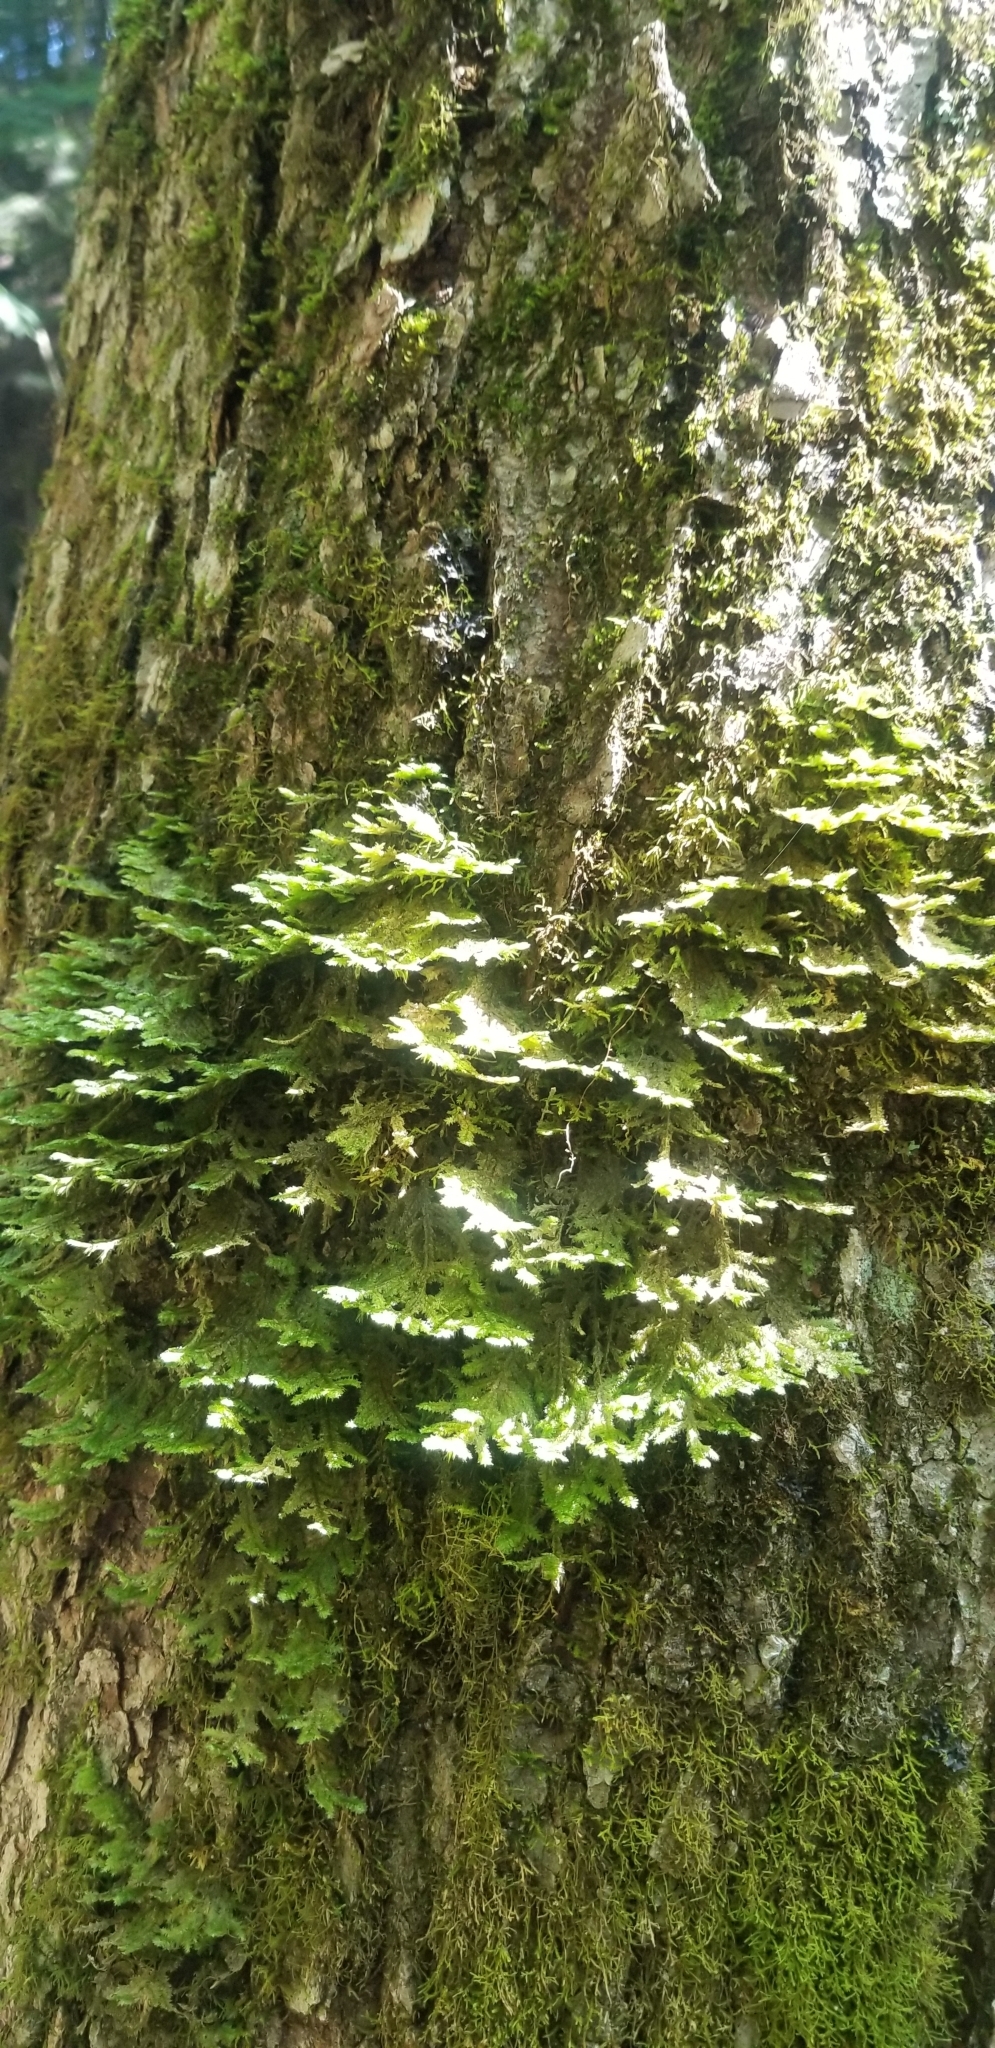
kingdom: Plantae
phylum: Bryophyta
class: Bryopsida
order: Hypnales
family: Neckeraceae
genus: Neckera
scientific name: Neckera pennata
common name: Feathery neckera
